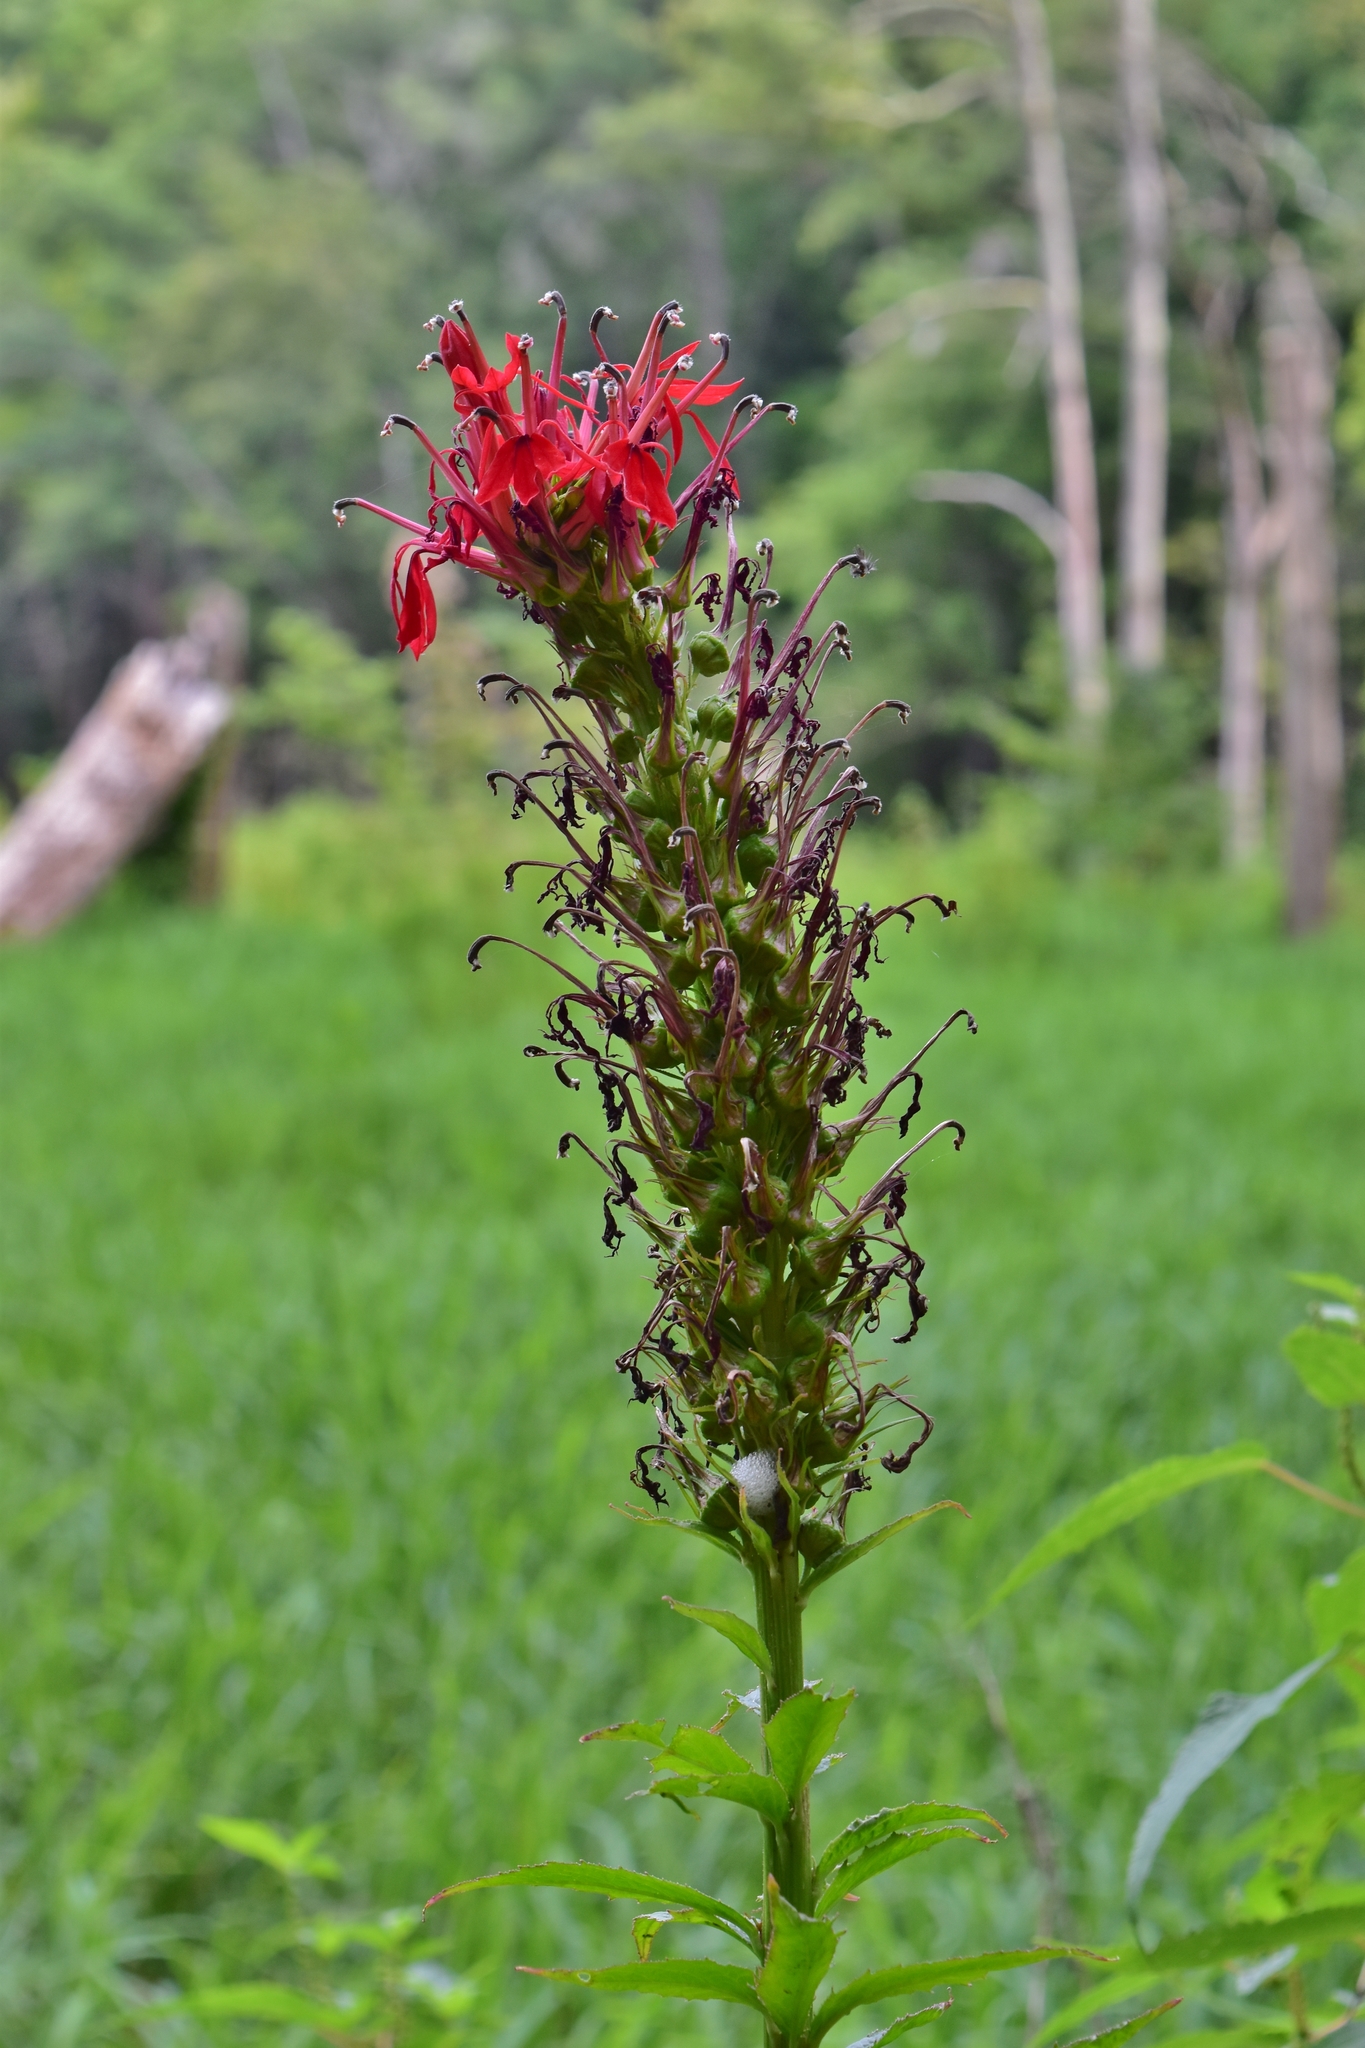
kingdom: Plantae
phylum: Tracheophyta
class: Magnoliopsida
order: Asterales
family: Campanulaceae
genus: Lobelia
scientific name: Lobelia cardinalis
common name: Cardinal flower
